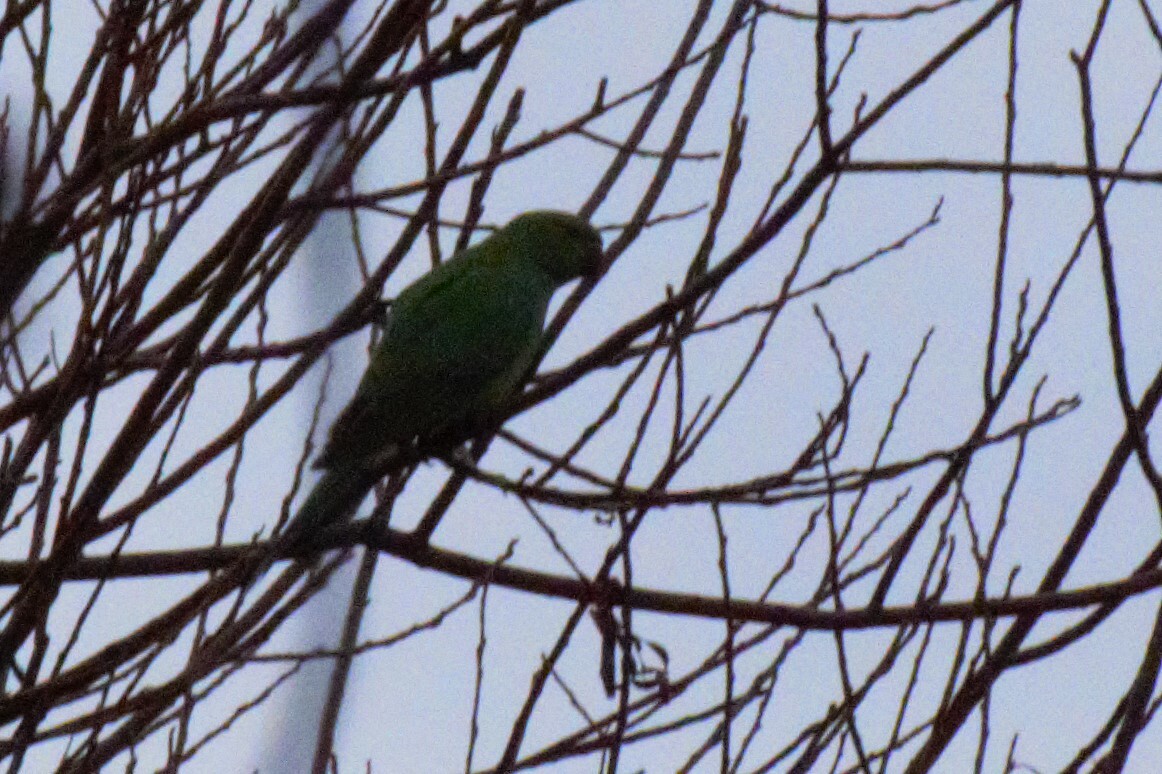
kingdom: Animalia
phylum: Chordata
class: Aves
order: Psittaciformes
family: Psittacidae
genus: Psittacula
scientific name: Psittacula krameri
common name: Rose-ringed parakeet
